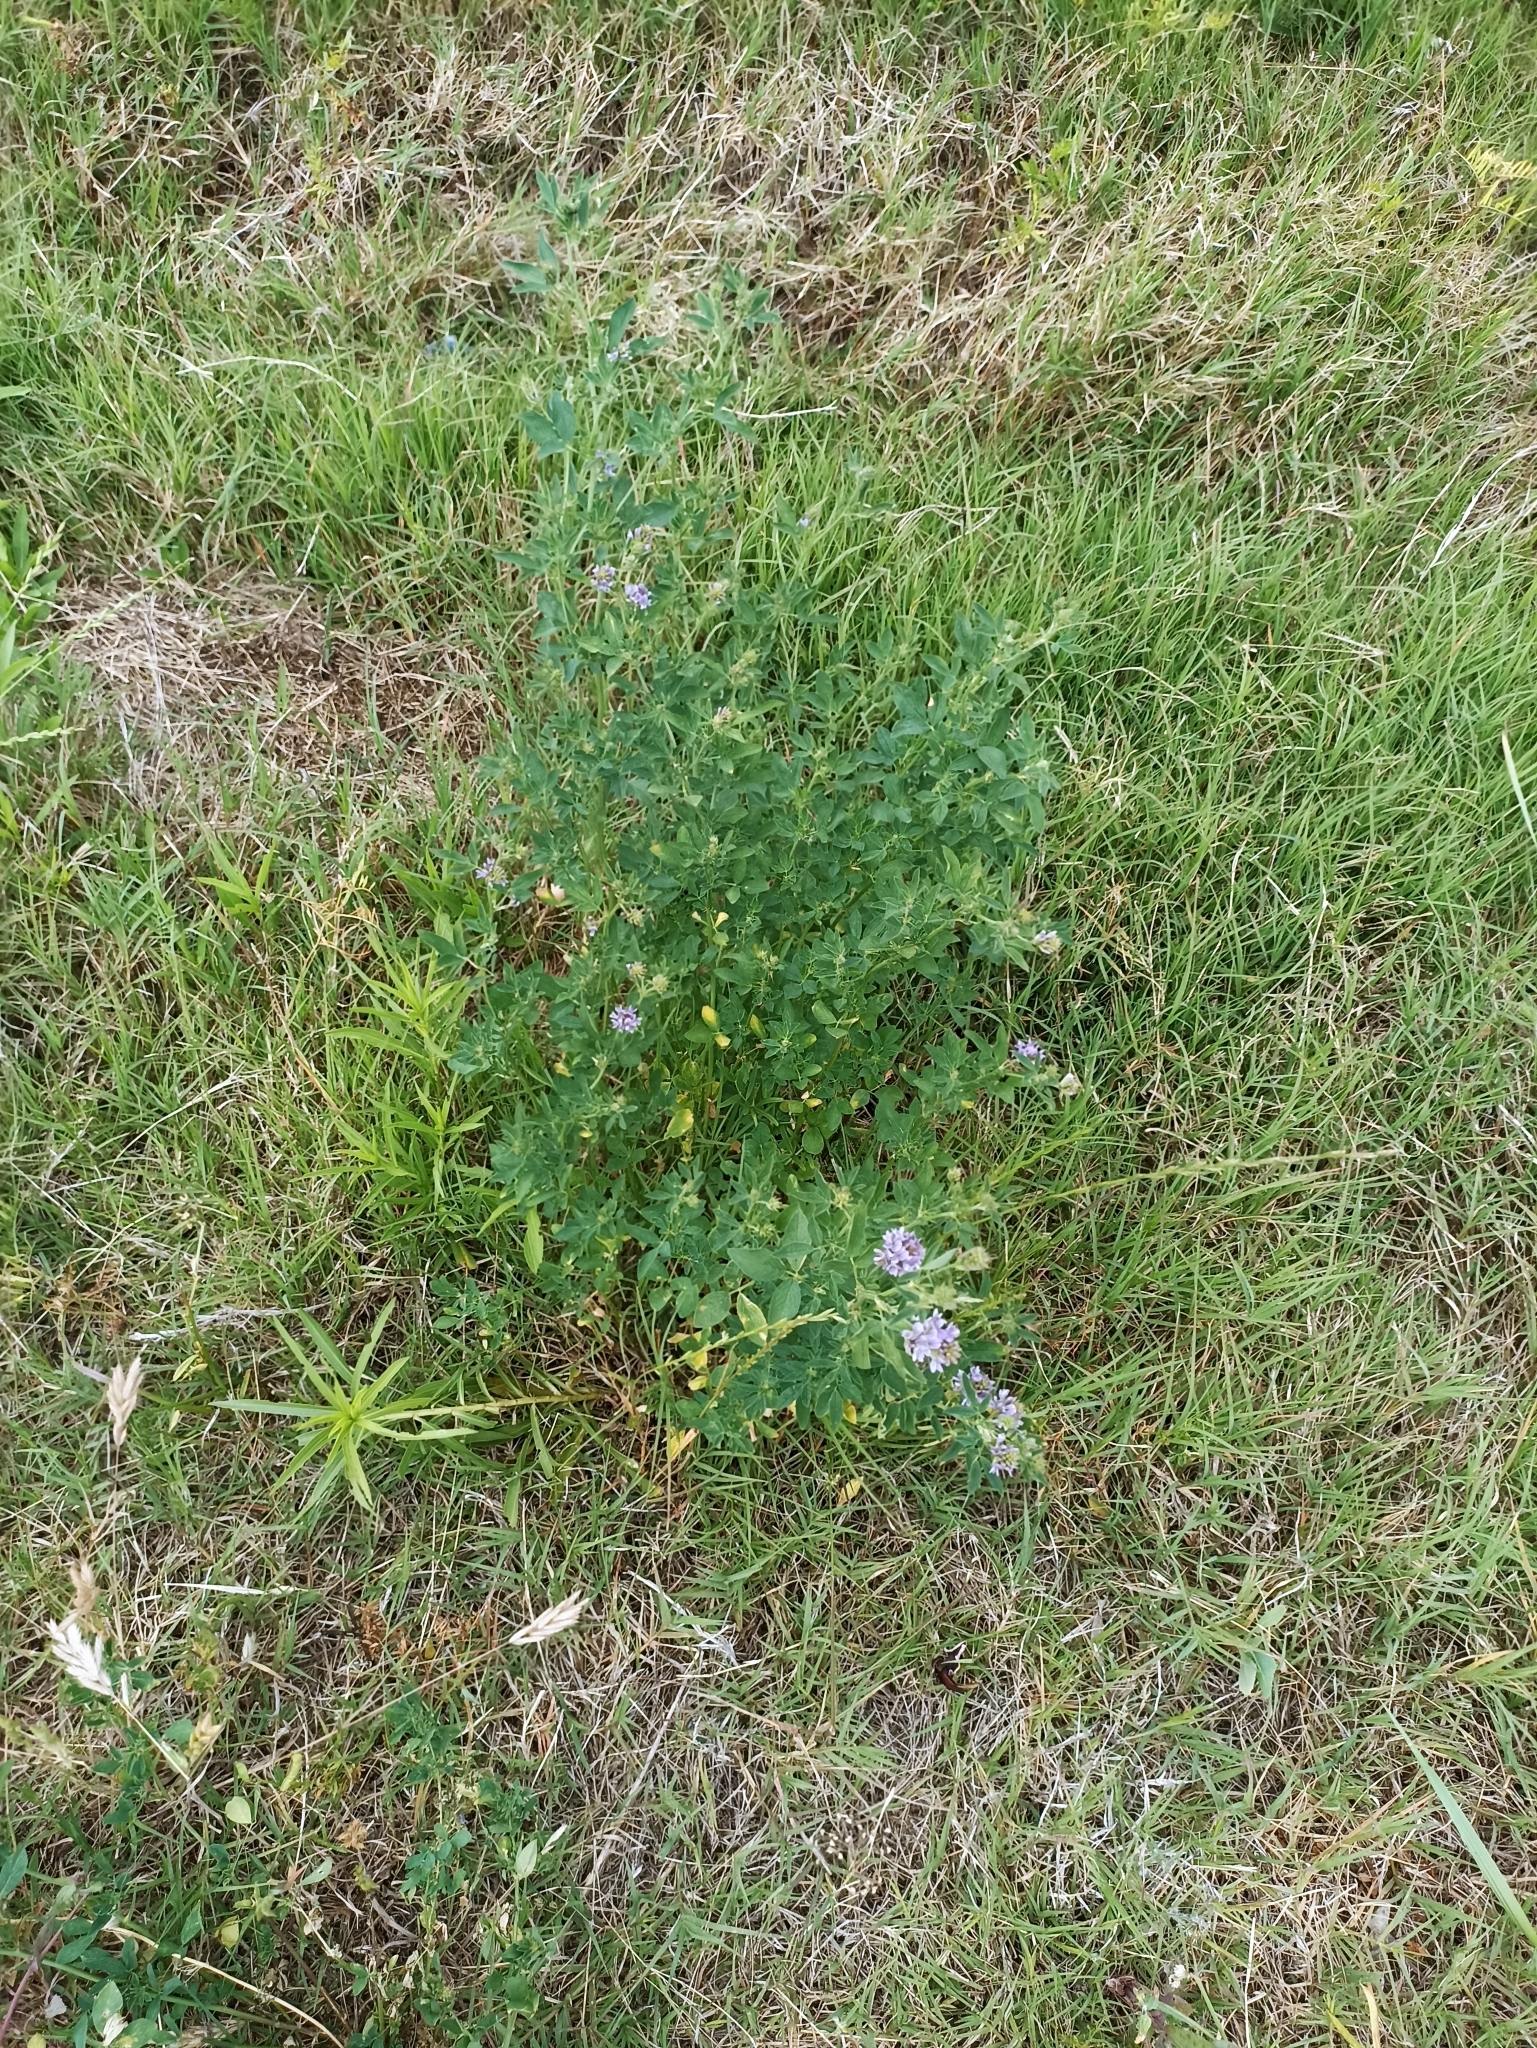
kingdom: Plantae
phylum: Tracheophyta
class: Magnoliopsida
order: Fabales
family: Fabaceae
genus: Medicago
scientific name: Medicago sativa
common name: Alfalfa
